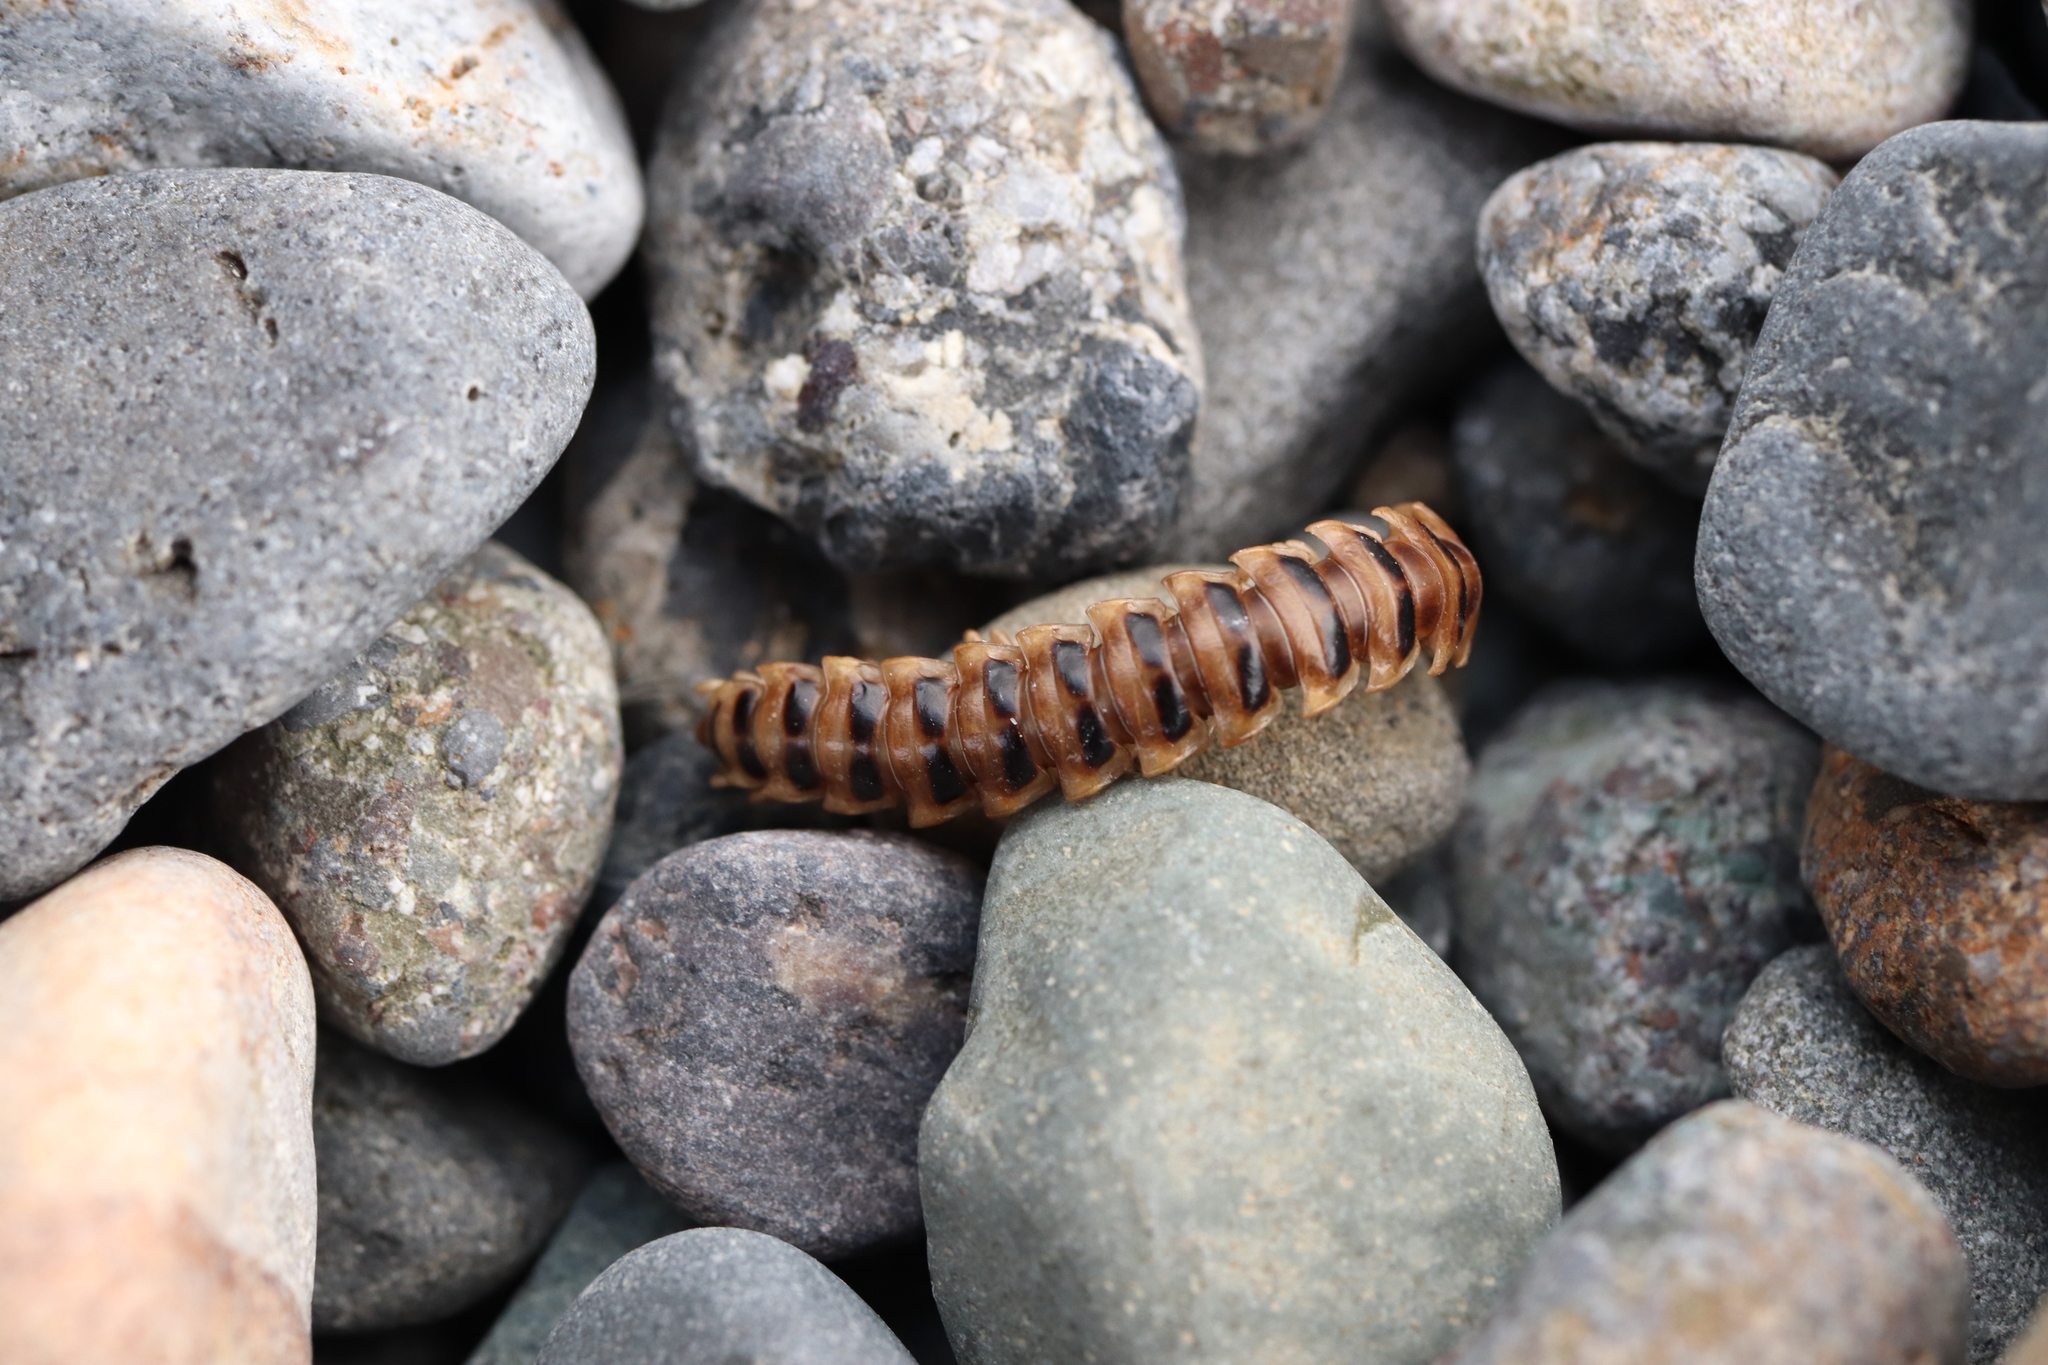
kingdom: Animalia
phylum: Arthropoda
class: Diplopoda
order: Polydesmida
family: Paradoxosomatidae
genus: Chamberlinius
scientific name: Chamberlinius hualienensis
